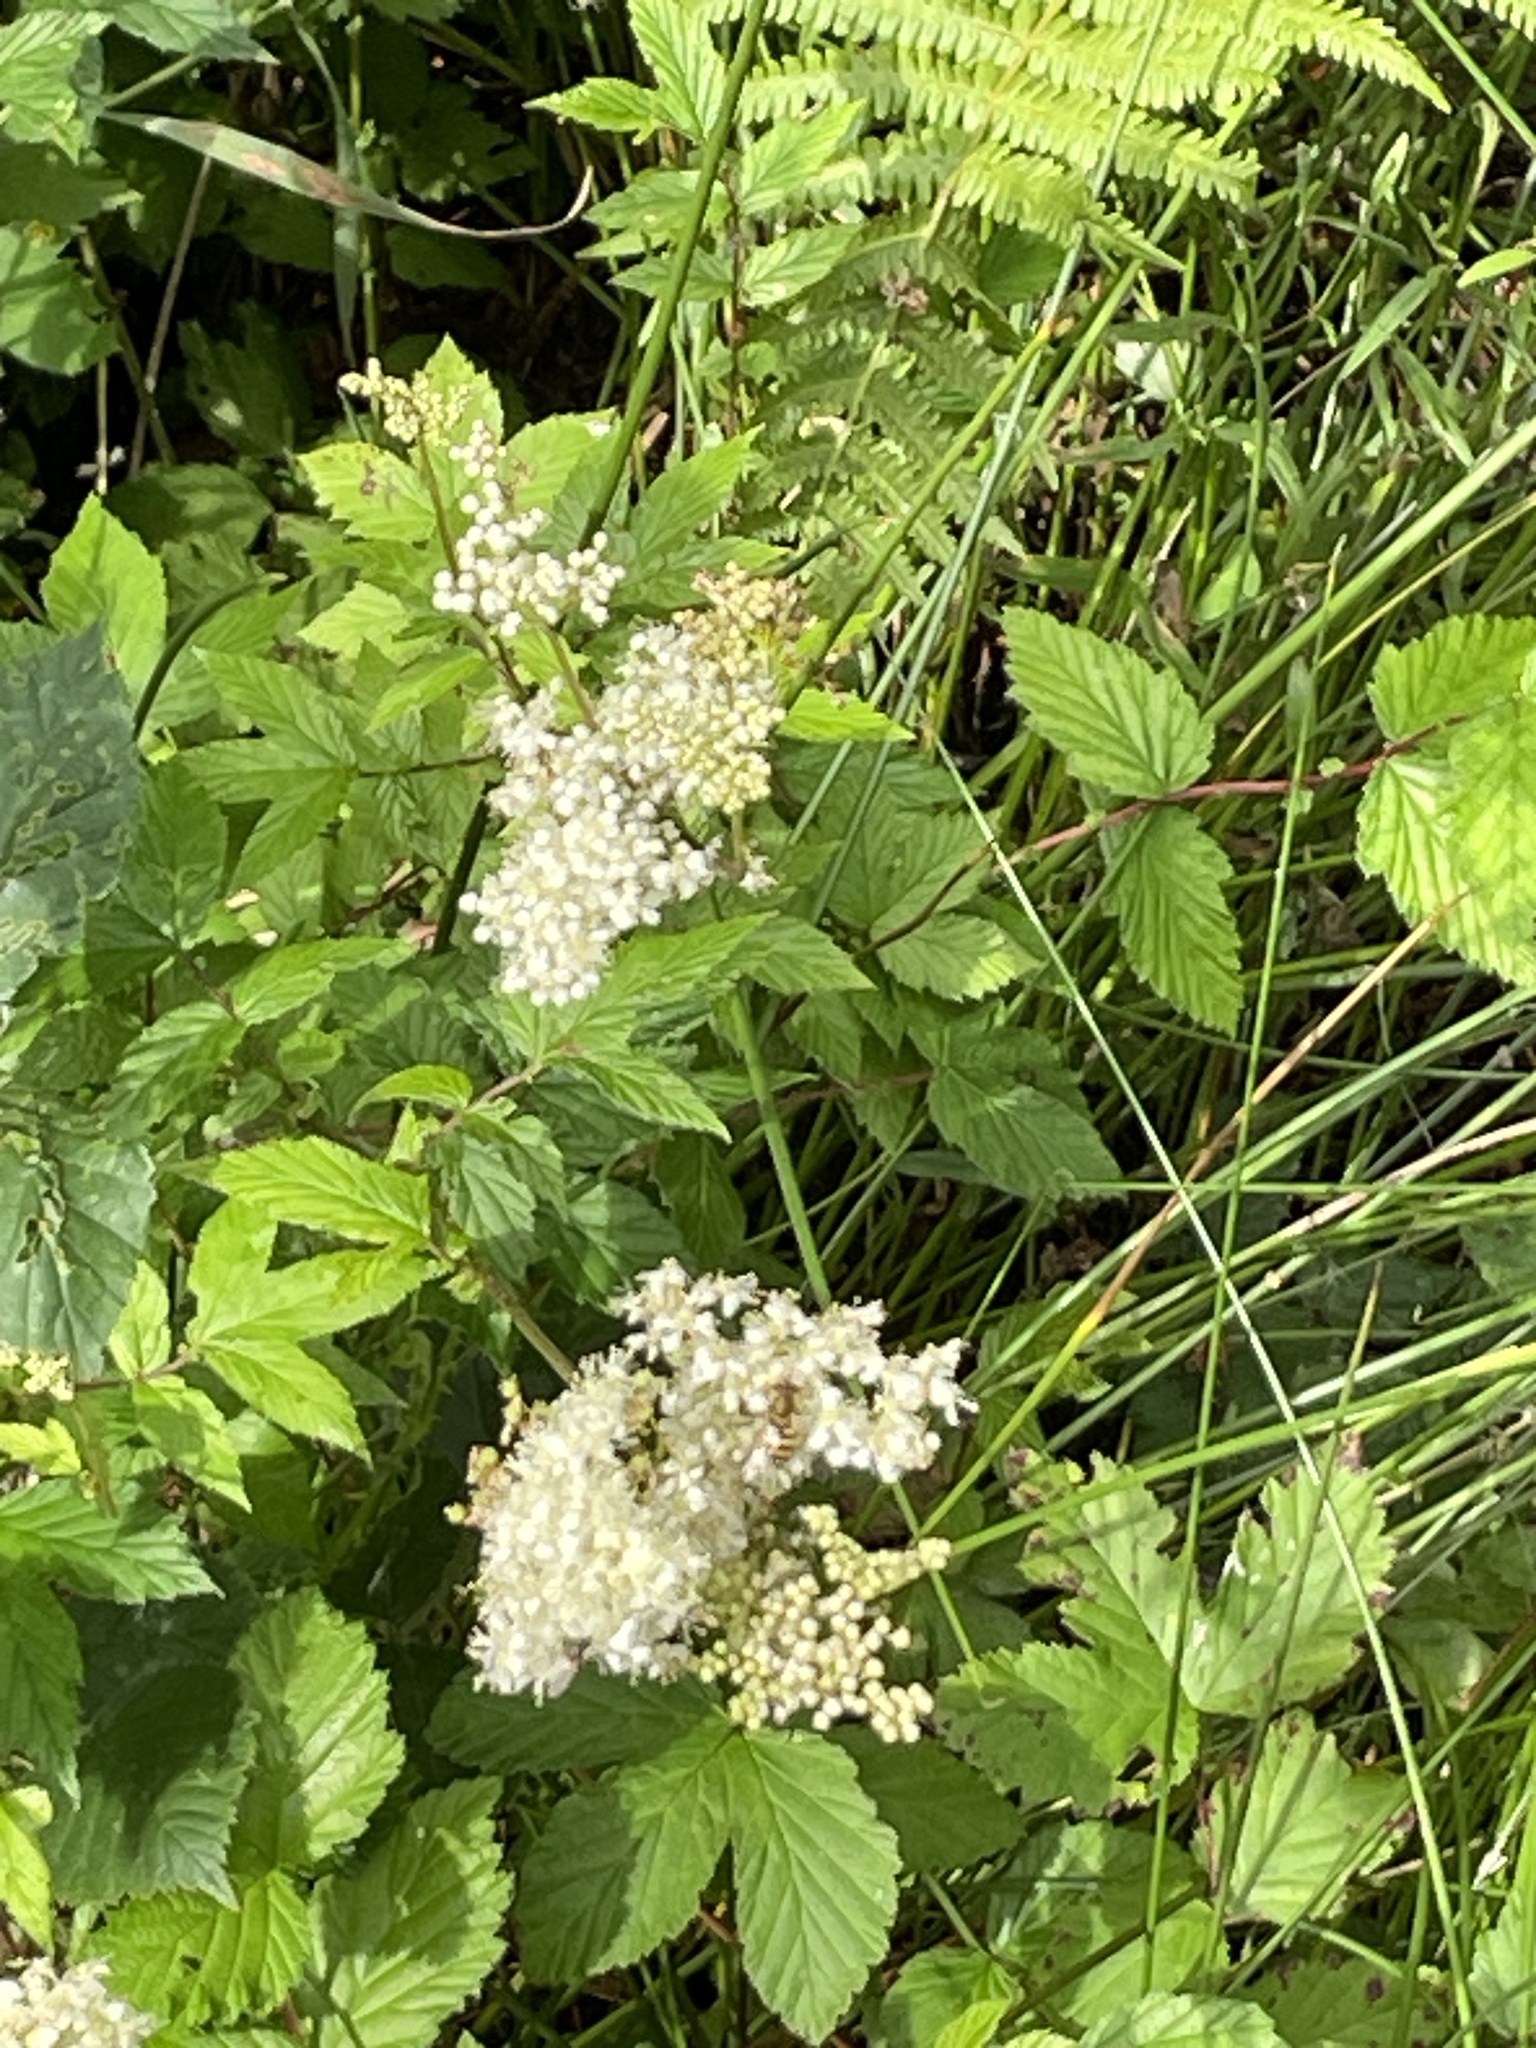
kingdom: Plantae
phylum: Tracheophyta
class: Magnoliopsida
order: Rosales
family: Rosaceae
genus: Filipendula
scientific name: Filipendula ulmaria
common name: Meadowsweet
